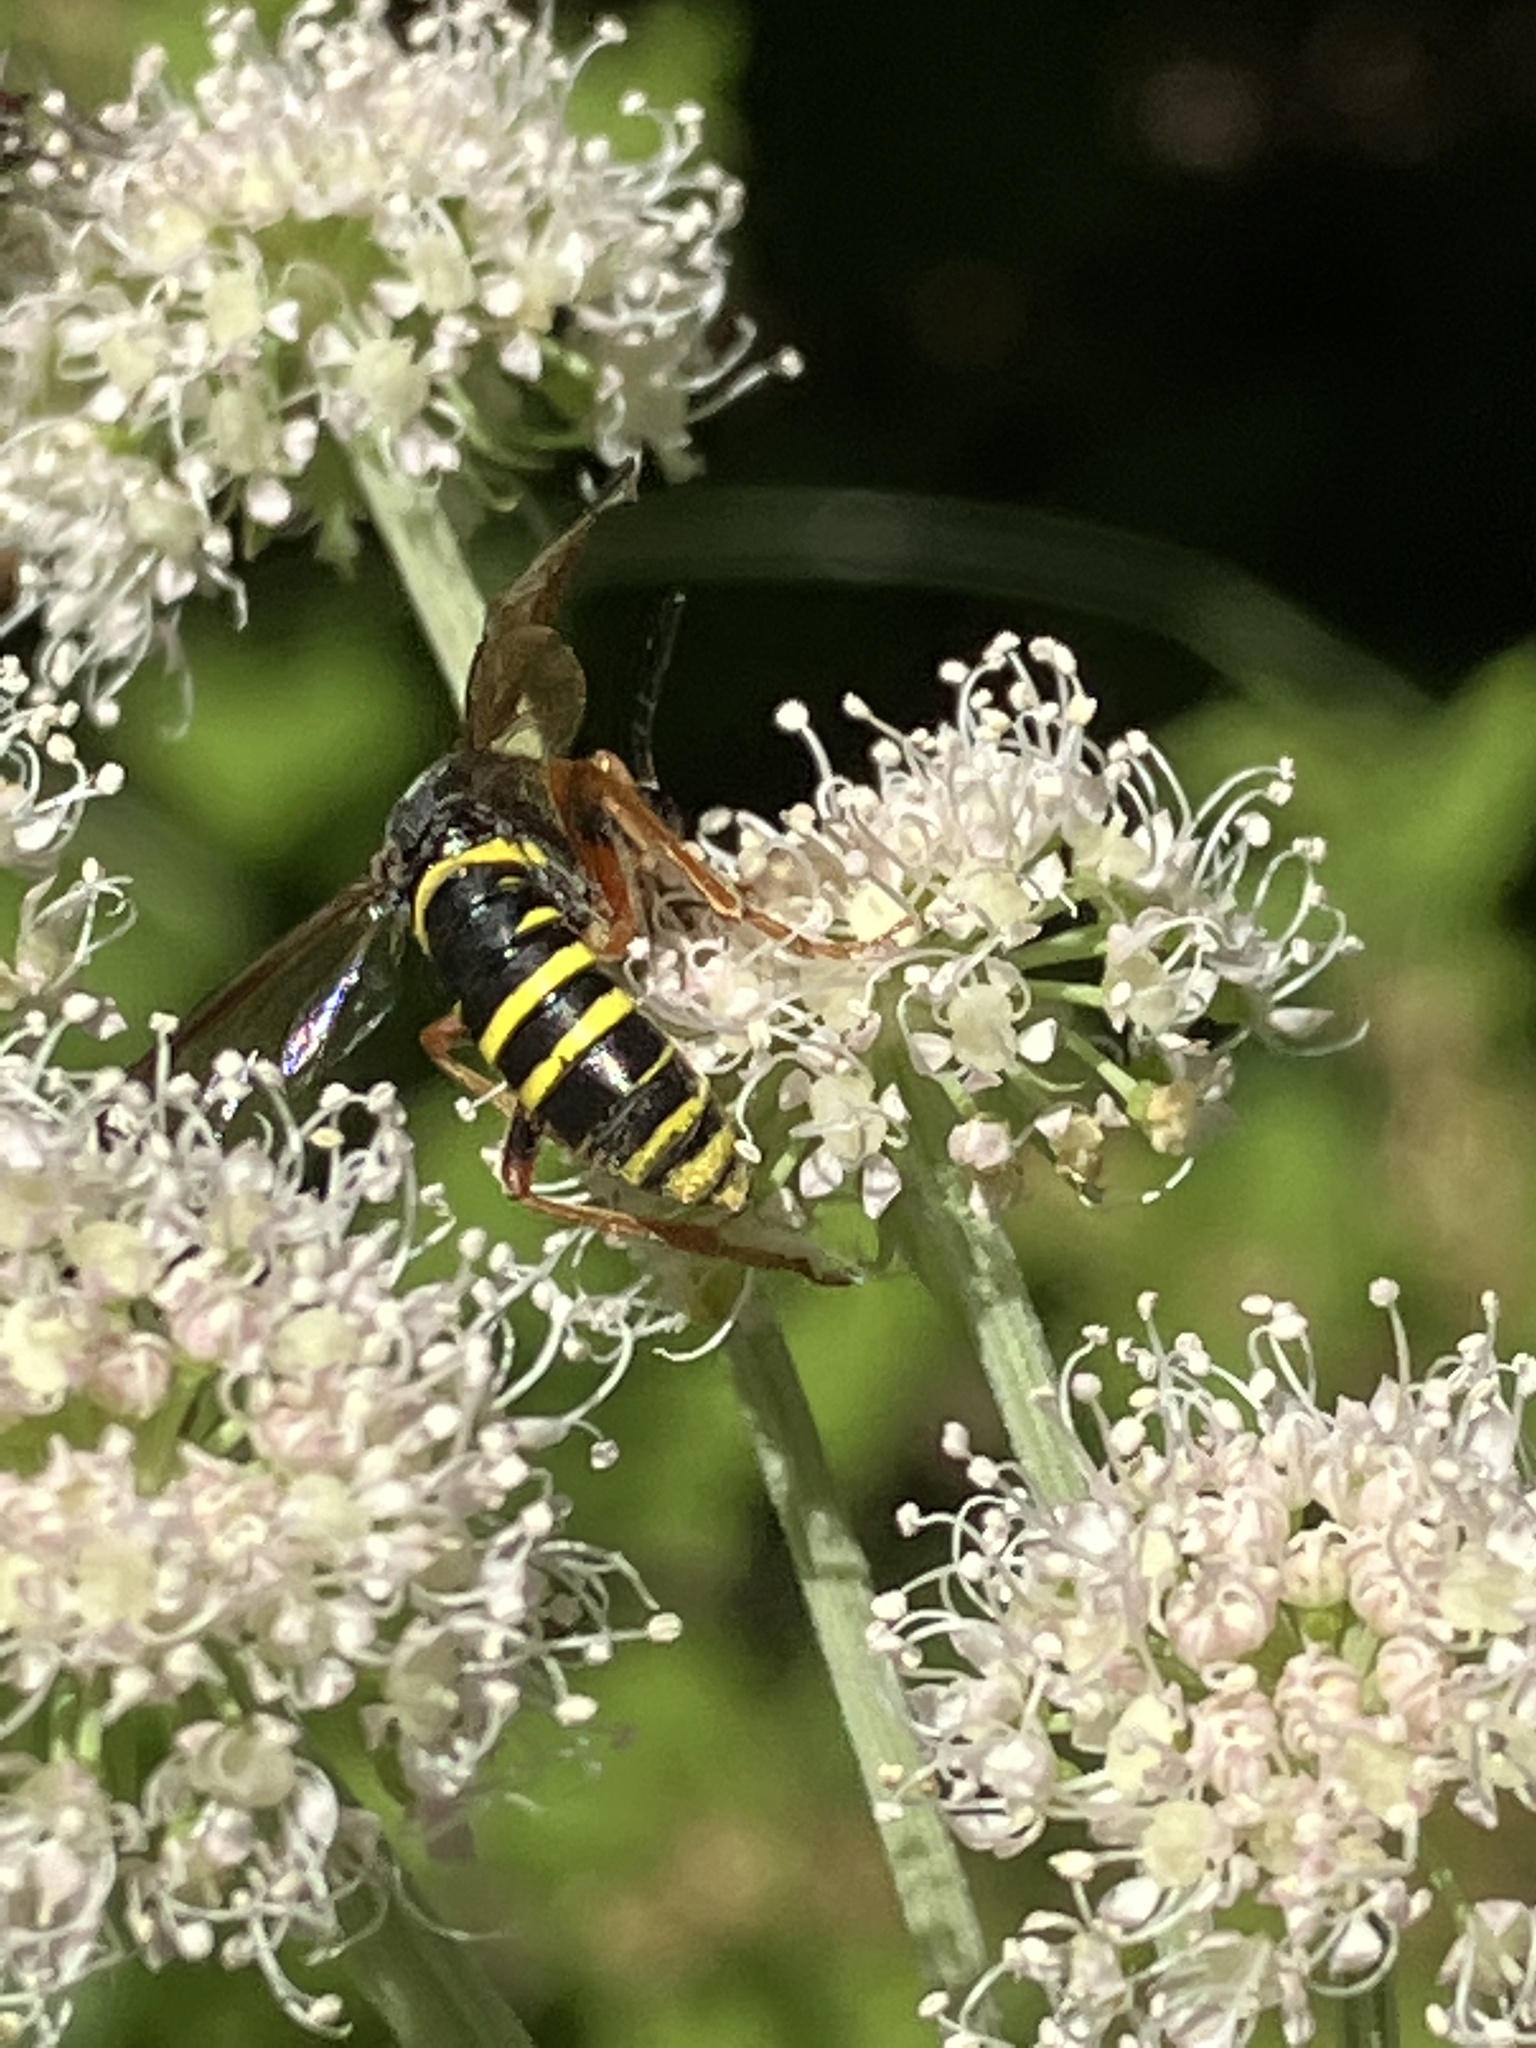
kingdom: Animalia
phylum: Arthropoda
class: Insecta
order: Hymenoptera
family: Tenthredinidae
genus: Tenthredo
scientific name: Tenthredo vespa
